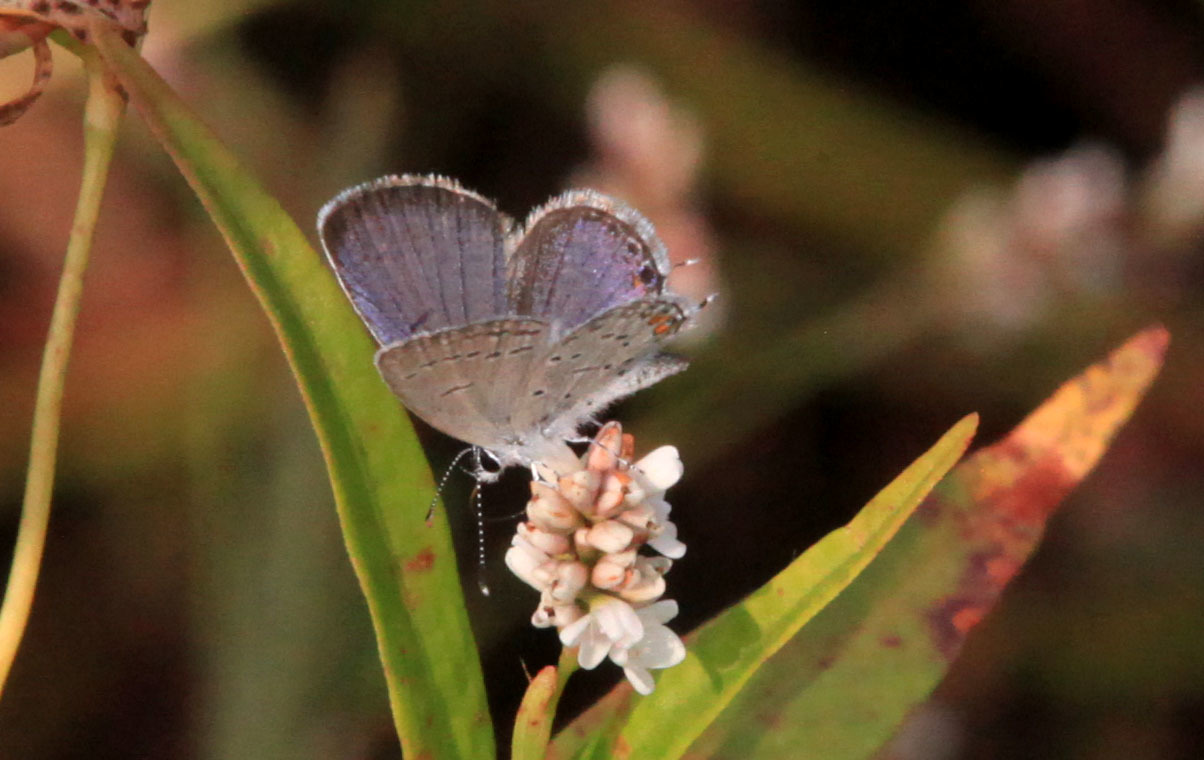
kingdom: Animalia
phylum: Arthropoda
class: Insecta
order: Lepidoptera
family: Lycaenidae
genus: Elkalyce
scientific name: Elkalyce comyntas
